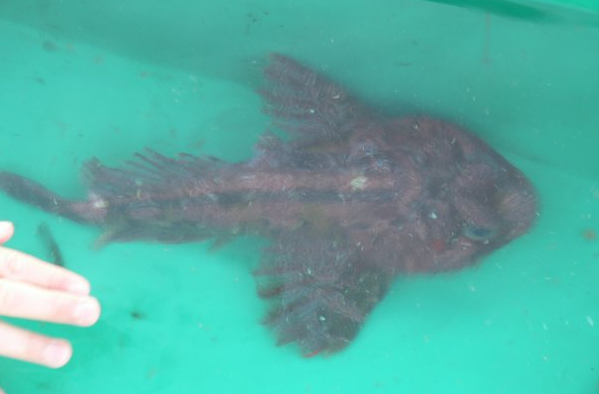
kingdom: Animalia
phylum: Chordata
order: Scorpaeniformes
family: Cottidae
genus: Hemilepidotus
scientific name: Hemilepidotus hemilepidotus
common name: Red irish lord
